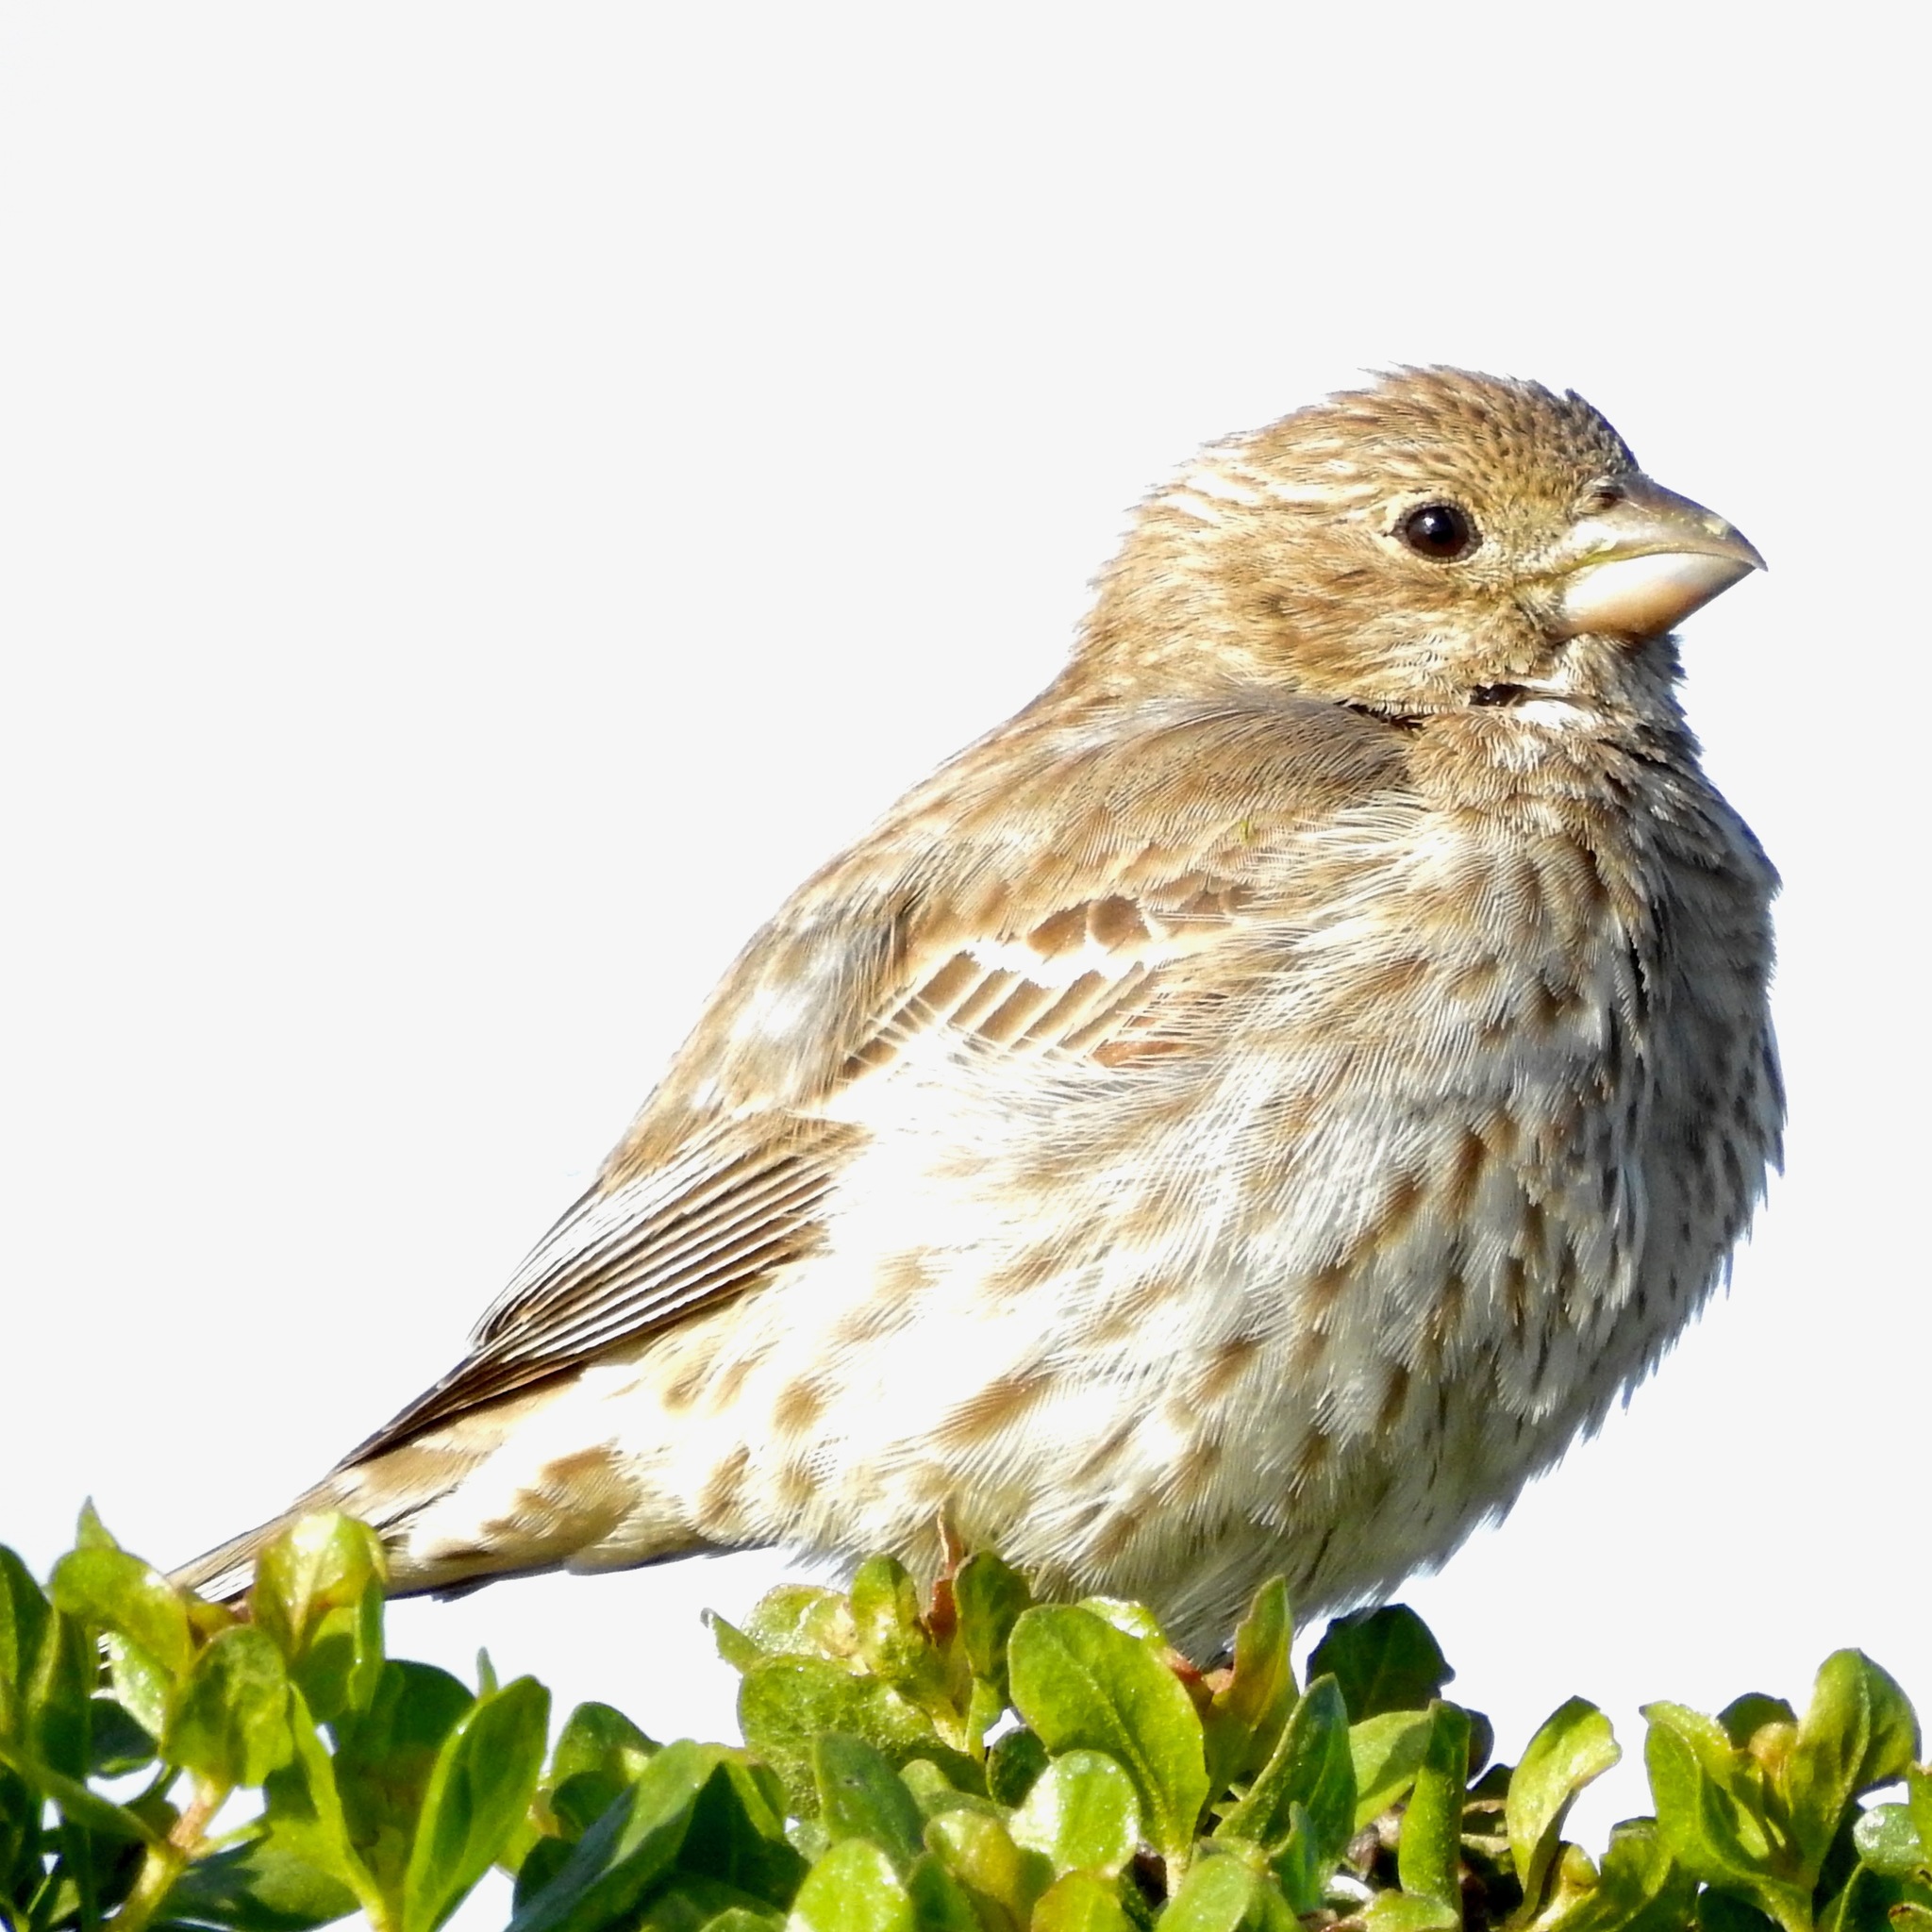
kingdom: Animalia
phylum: Chordata
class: Aves
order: Passeriformes
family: Fringillidae
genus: Haemorhous
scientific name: Haemorhous mexicanus
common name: House finch
